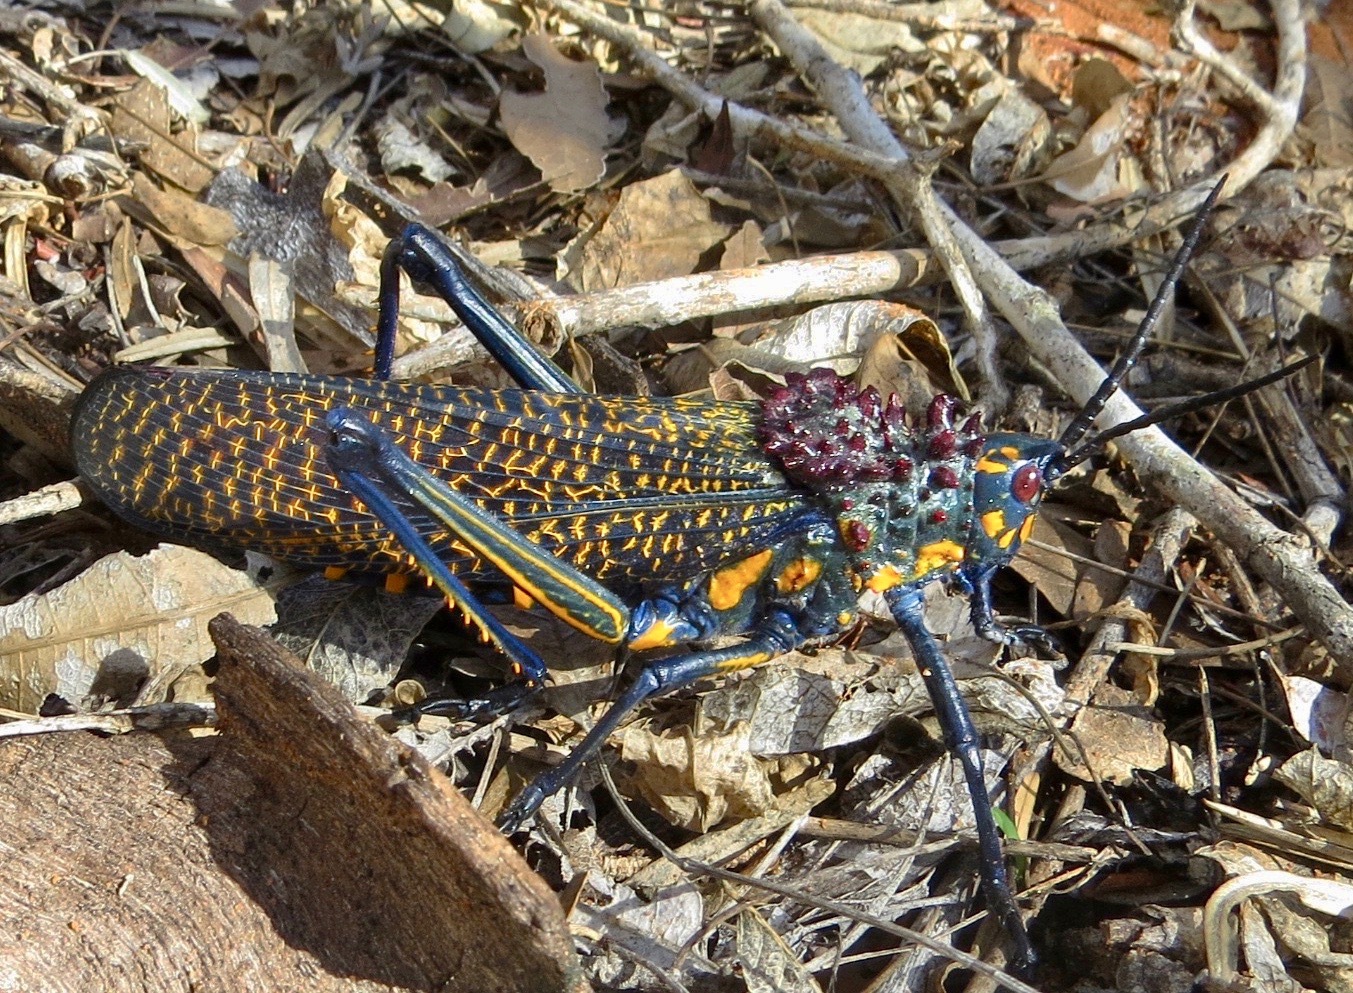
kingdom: Animalia
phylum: Arthropoda
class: Insecta
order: Orthoptera
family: Pyrgomorphidae
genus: Phymateus
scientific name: Phymateus saxosus
